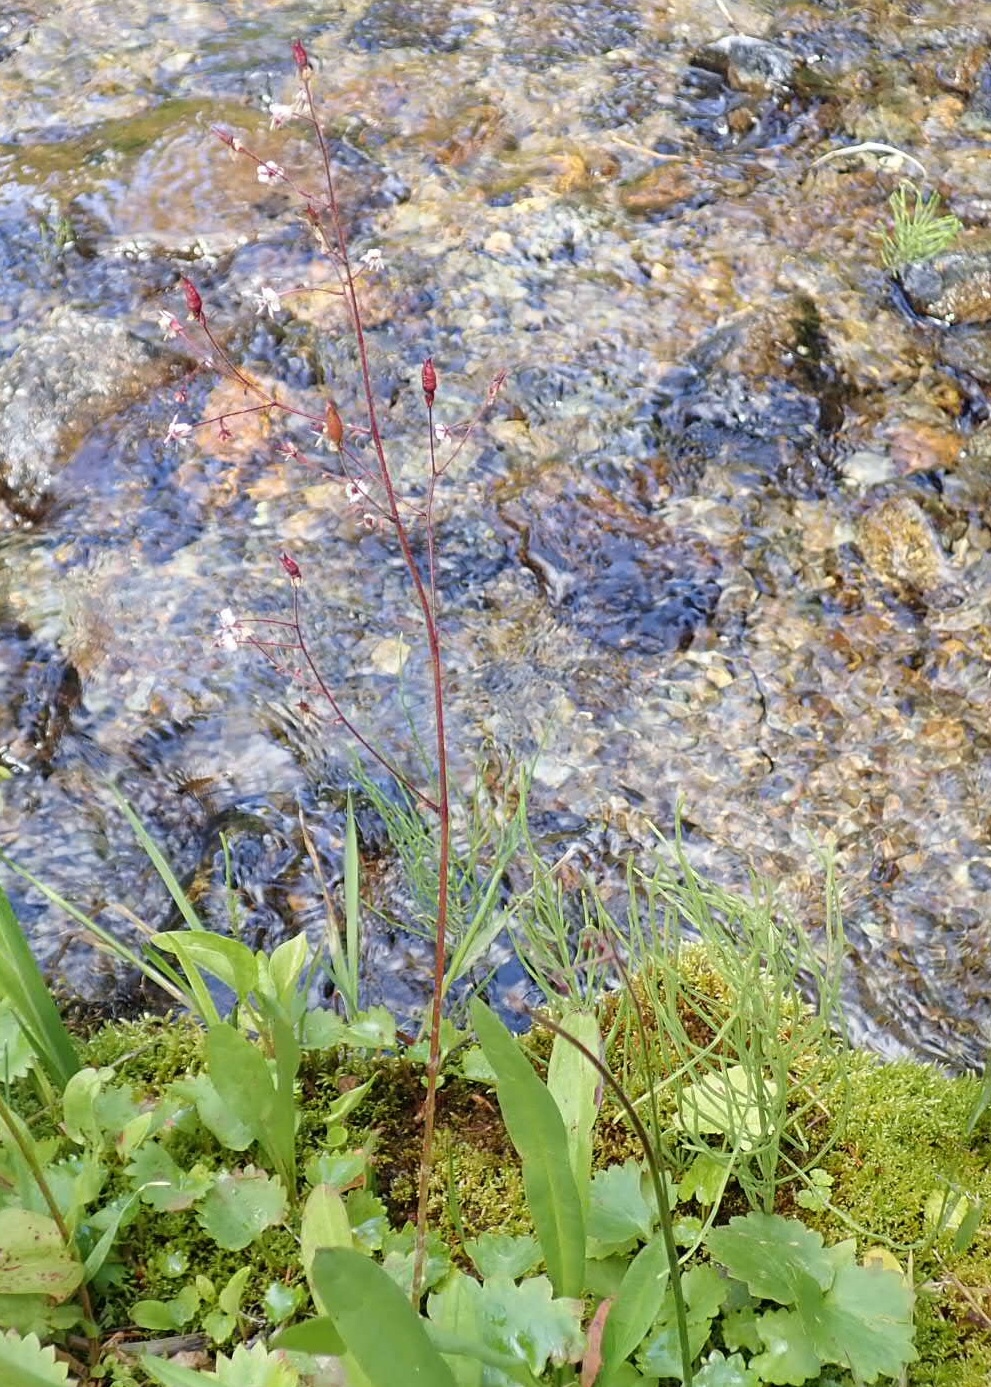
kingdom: Plantae
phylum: Tracheophyta
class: Magnoliopsida
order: Saxifragales
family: Saxifragaceae
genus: Micranthes
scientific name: Micranthes odontoloma
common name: Brook saxifrage
